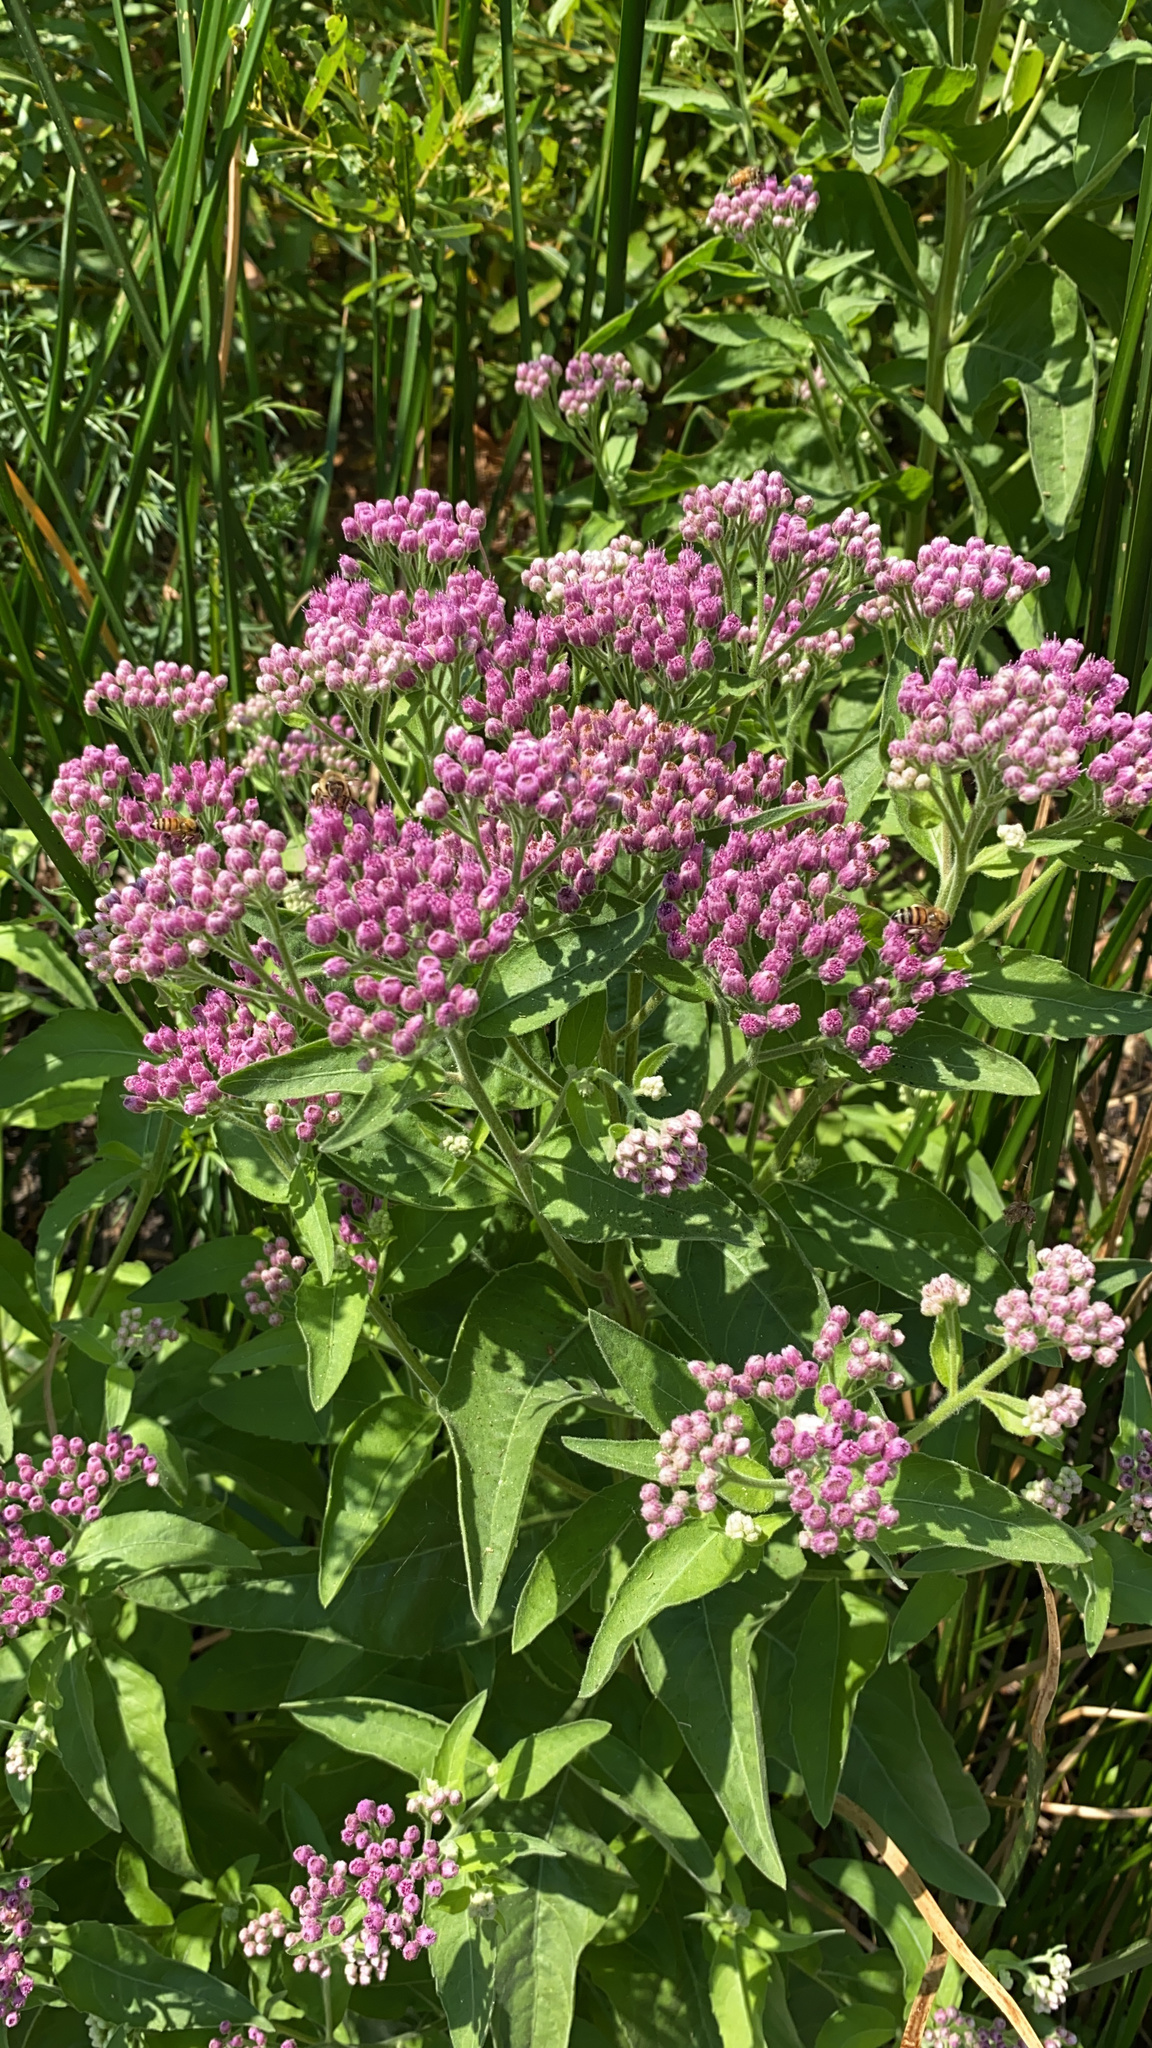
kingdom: Plantae
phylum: Tracheophyta
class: Magnoliopsida
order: Asterales
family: Asteraceae
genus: Pluchea
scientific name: Pluchea odorata
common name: Saltmarsh fleabane
